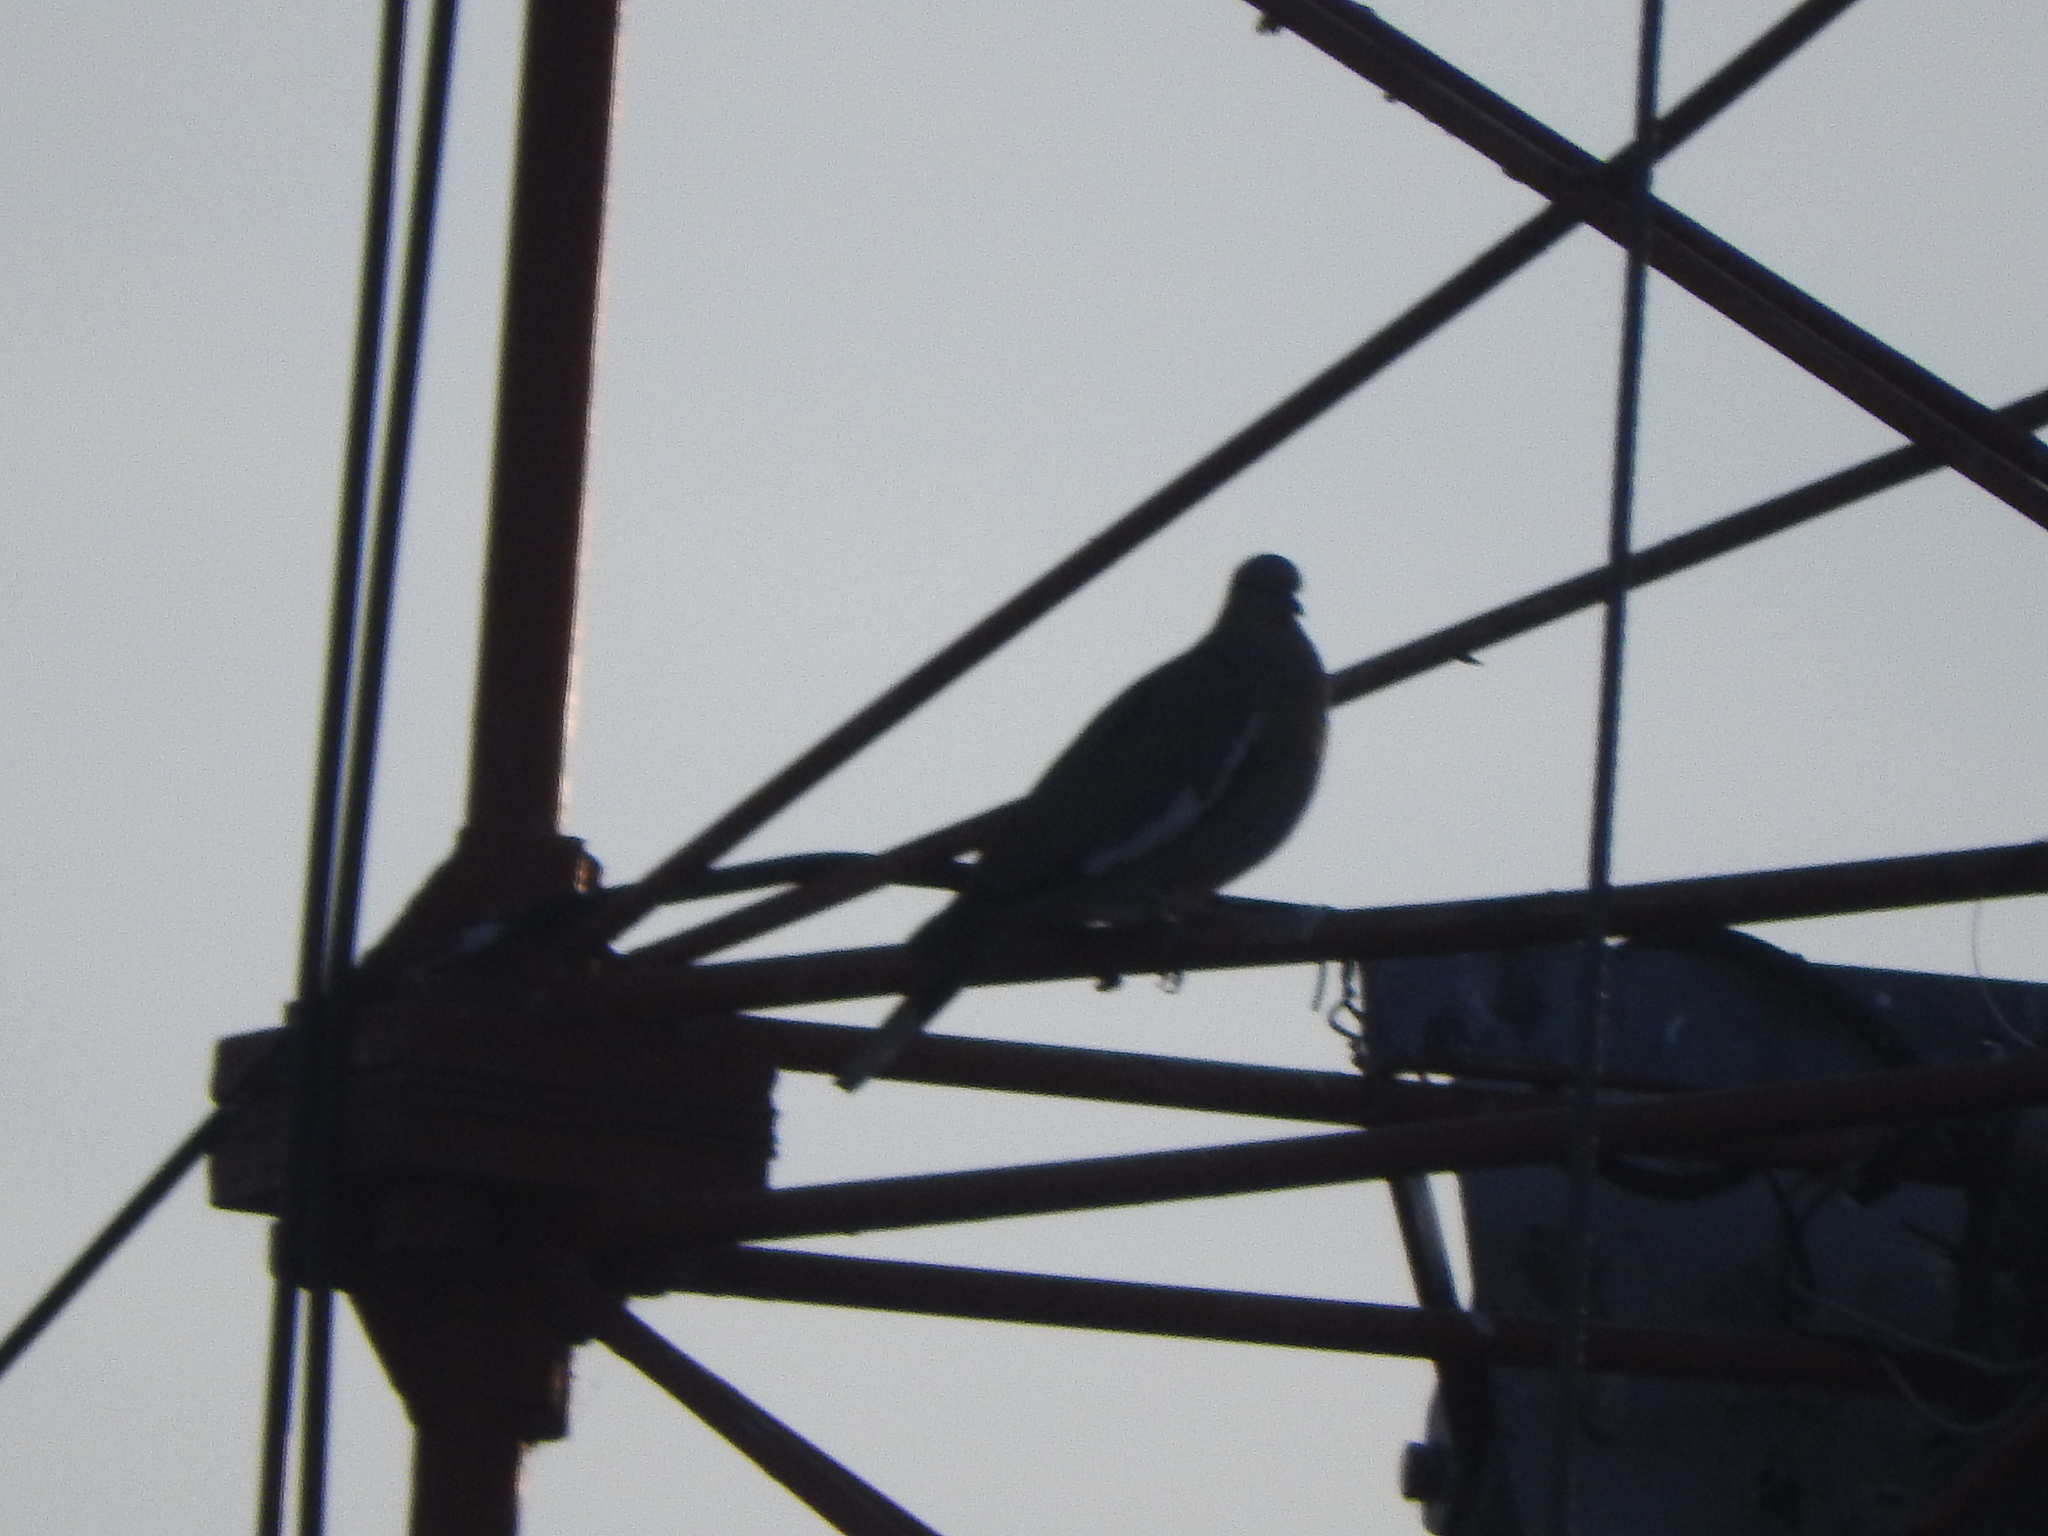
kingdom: Animalia
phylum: Chordata
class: Aves
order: Columbiformes
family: Columbidae
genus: Zenaida
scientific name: Zenaida asiatica
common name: White-winged dove
